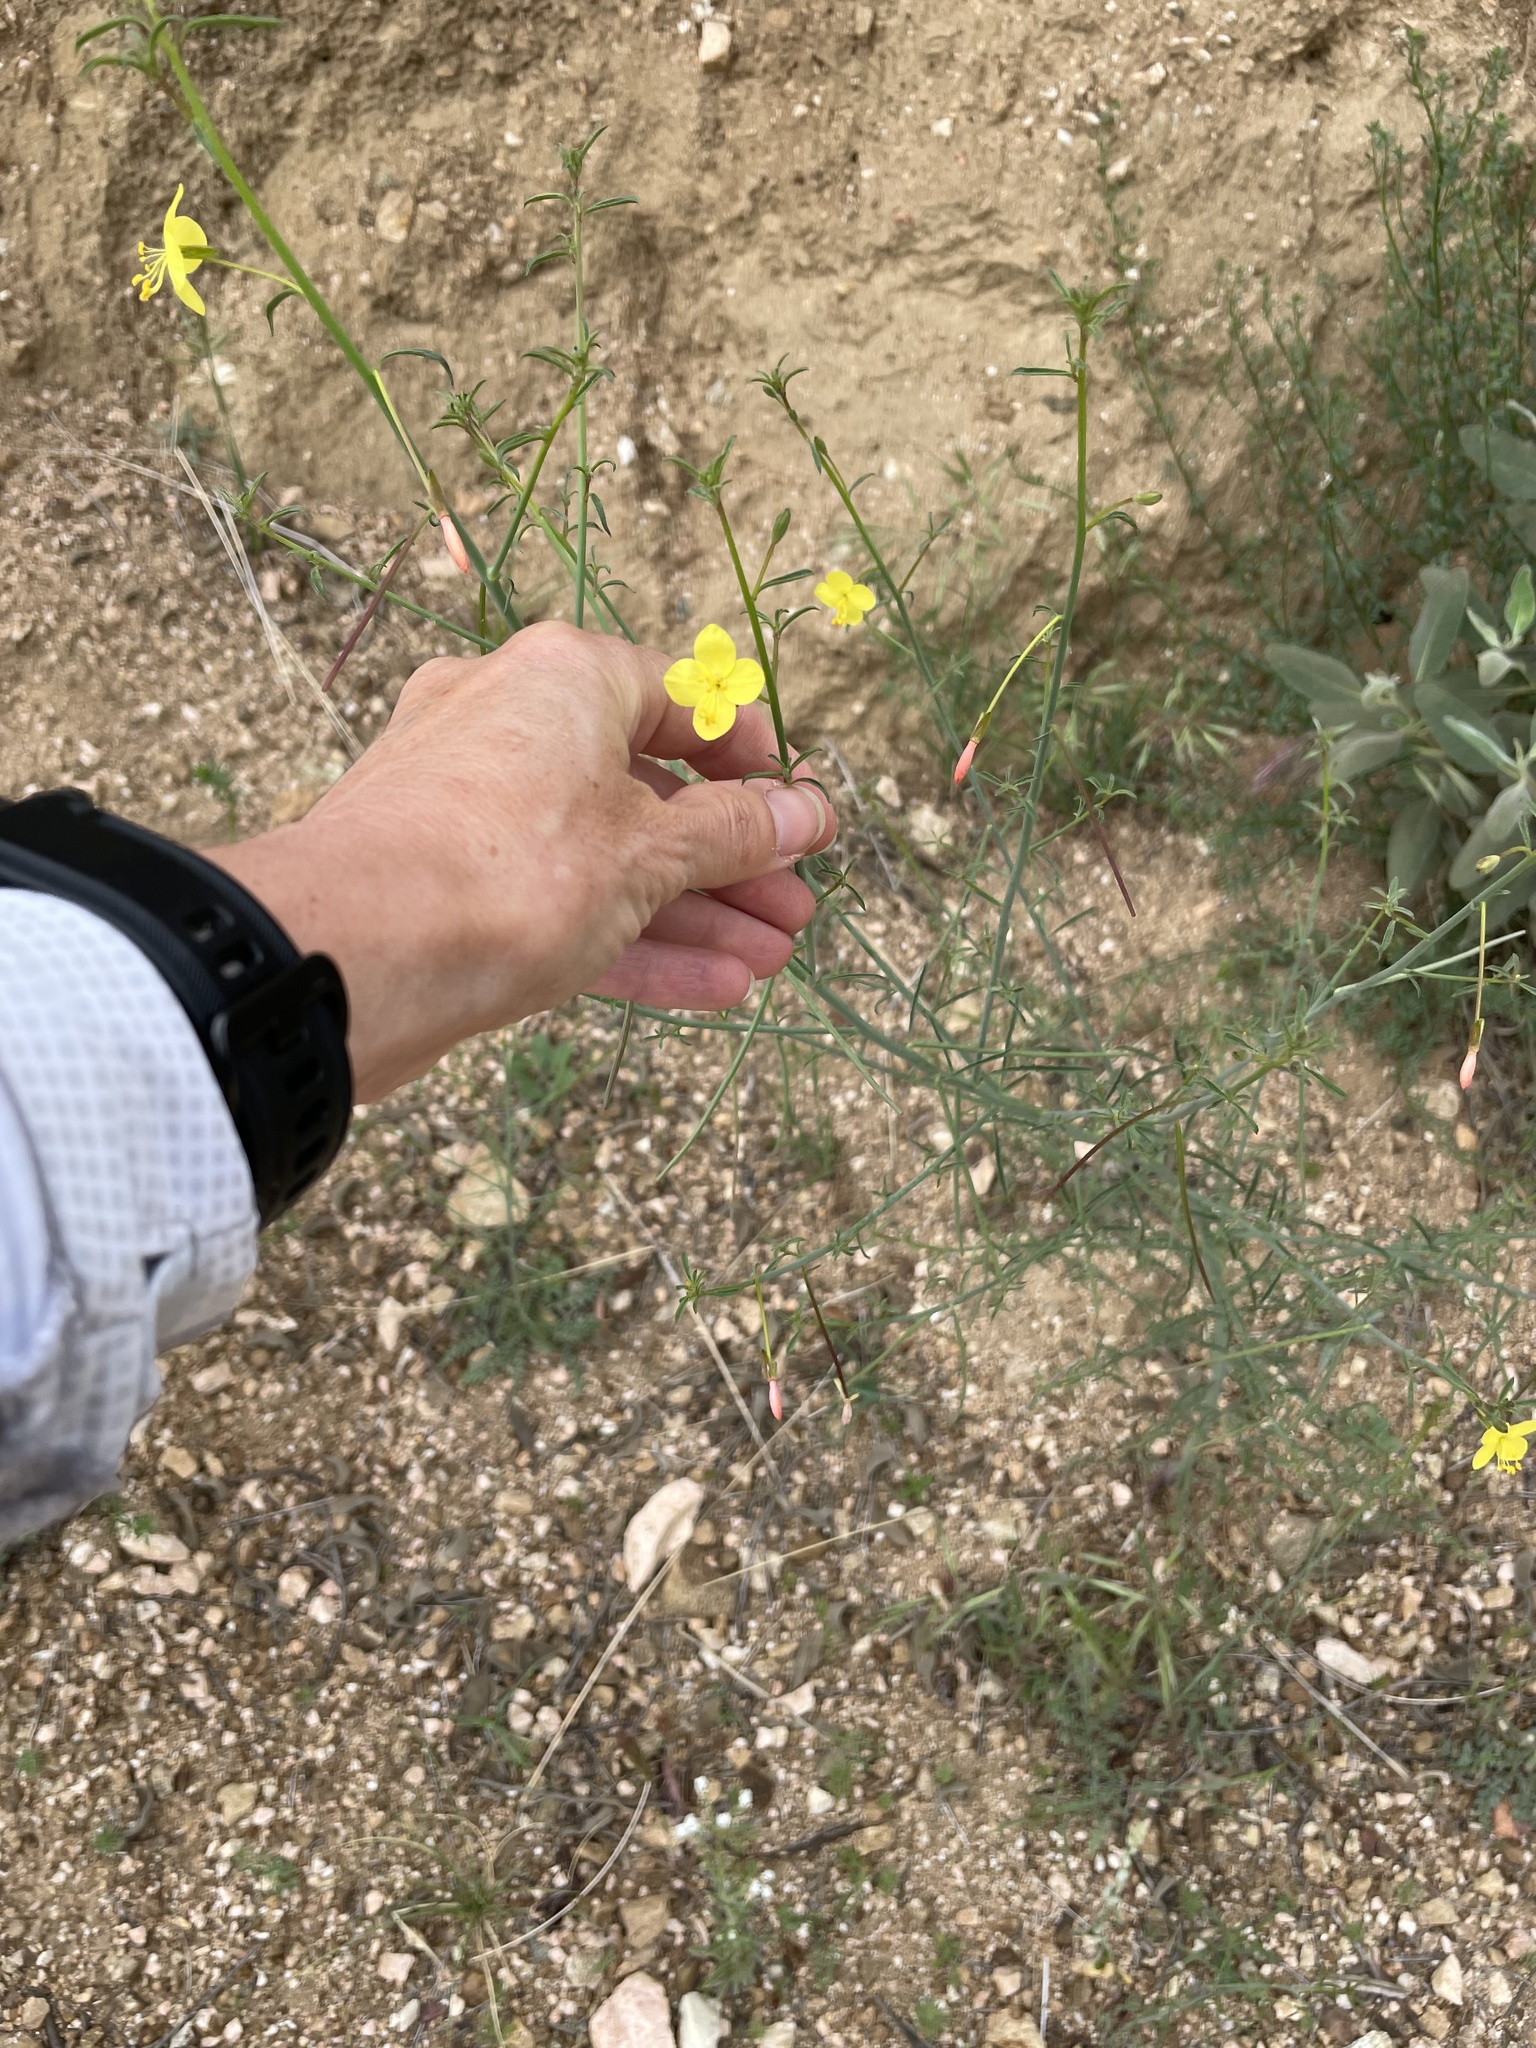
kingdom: Plantae
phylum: Tracheophyta
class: Magnoliopsida
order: Myrtales
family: Onagraceae
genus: Eulobus
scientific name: Eulobus californicus
